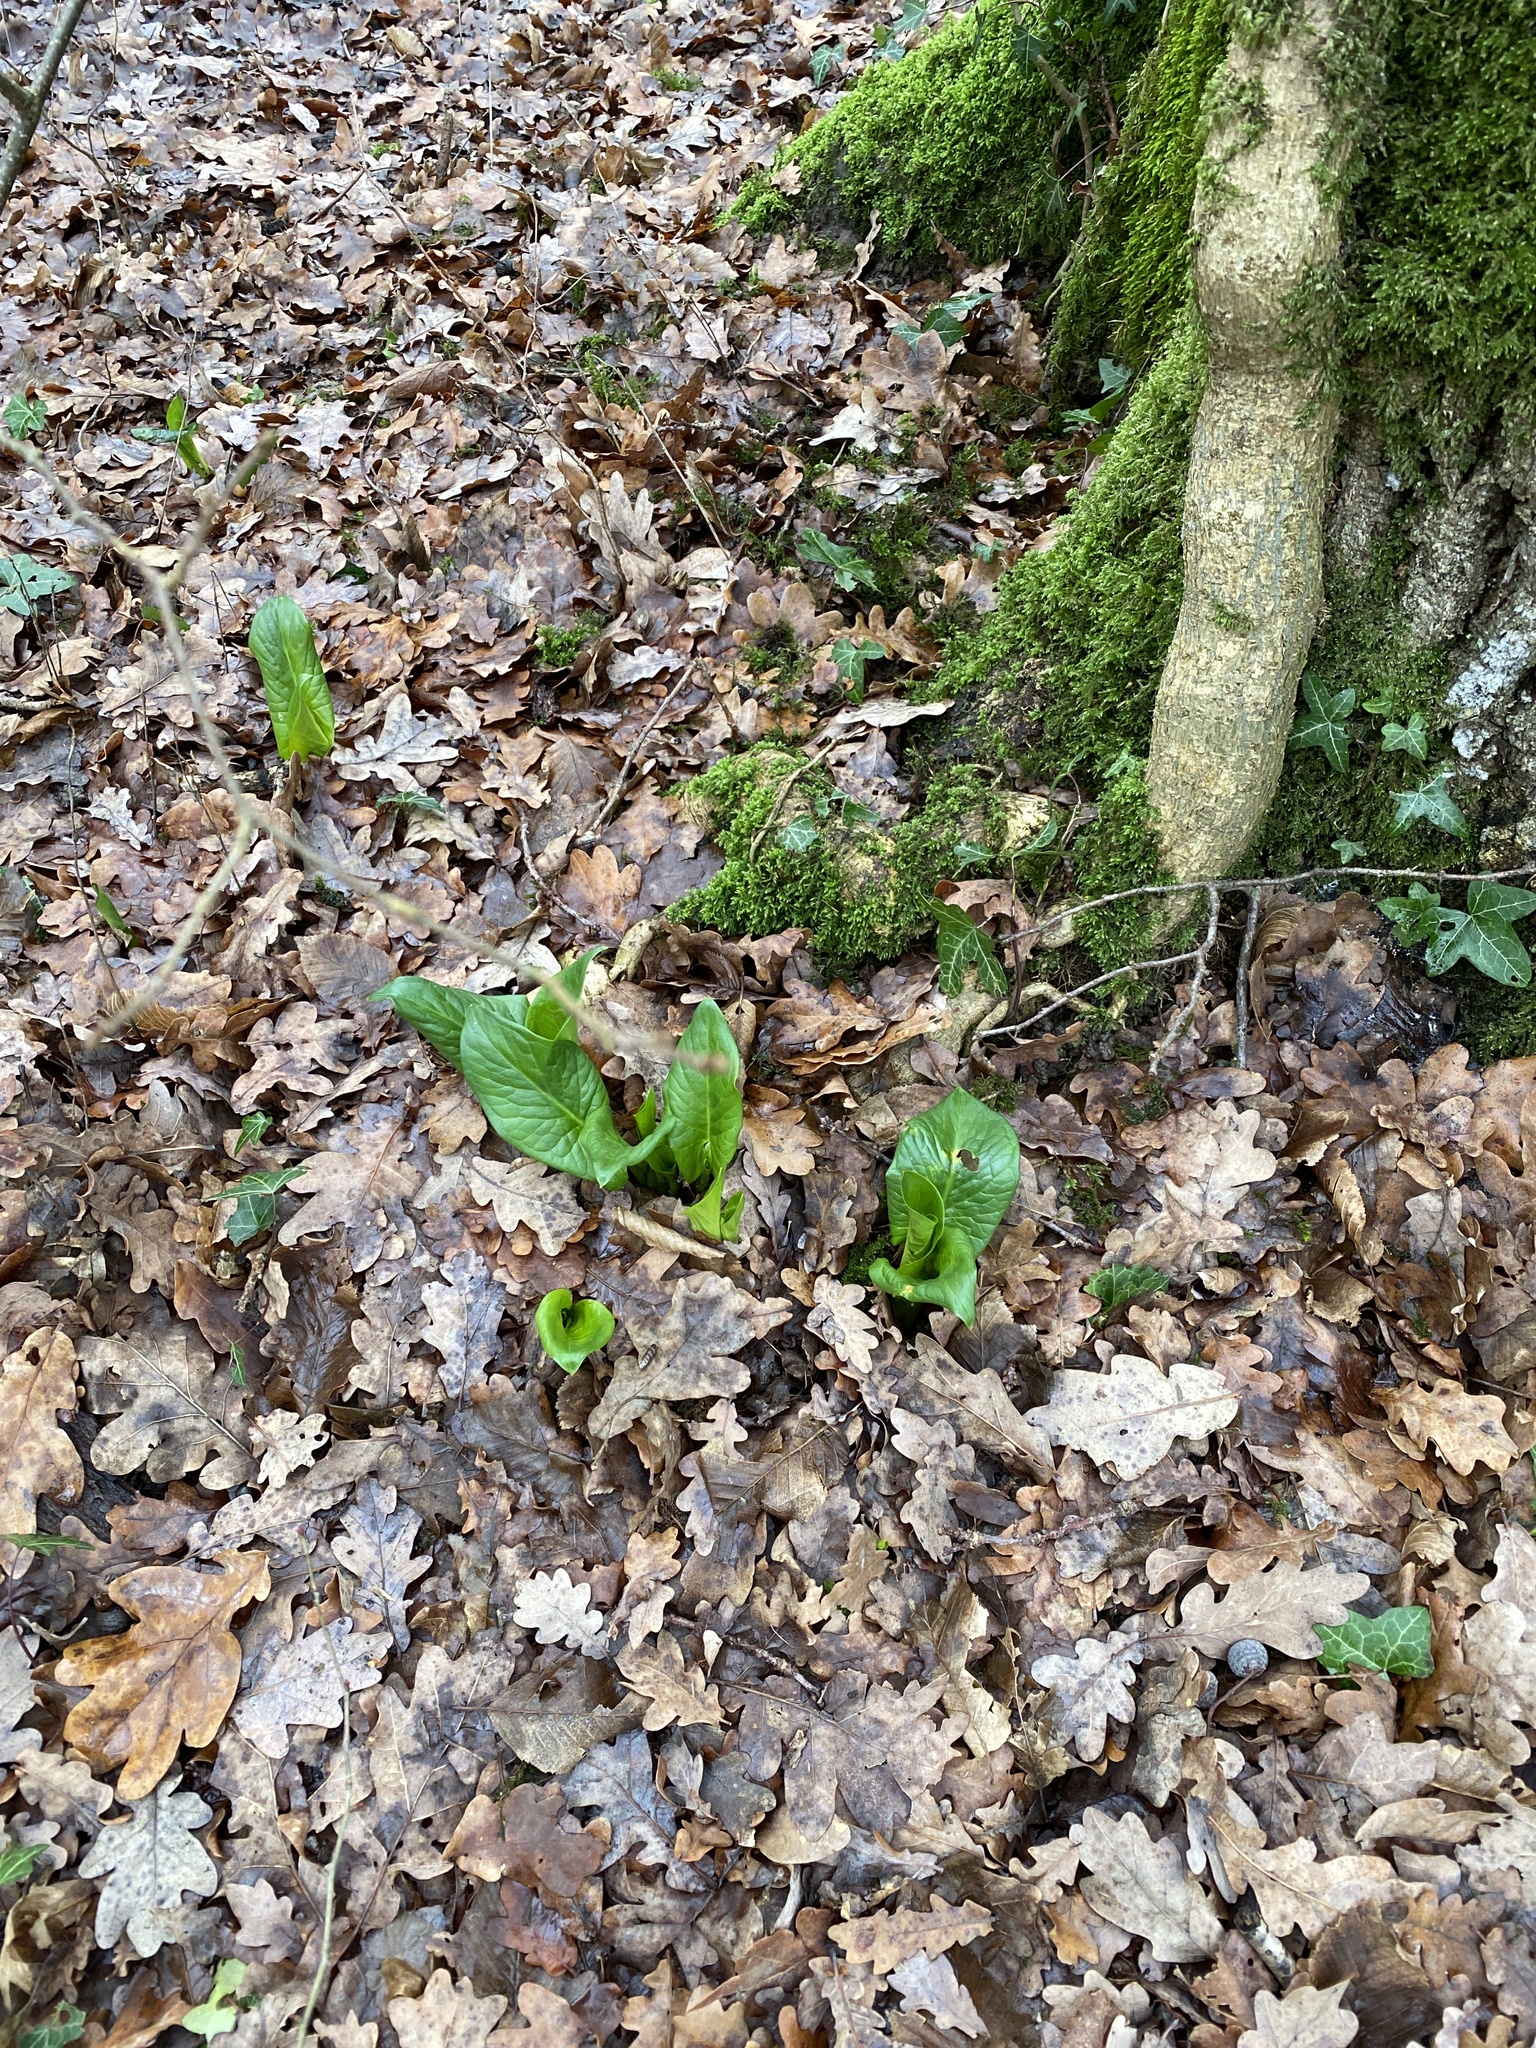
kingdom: Plantae
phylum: Tracheophyta
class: Liliopsida
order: Alismatales
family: Araceae
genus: Arum
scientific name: Arum maculatum
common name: Lords-and-ladies
